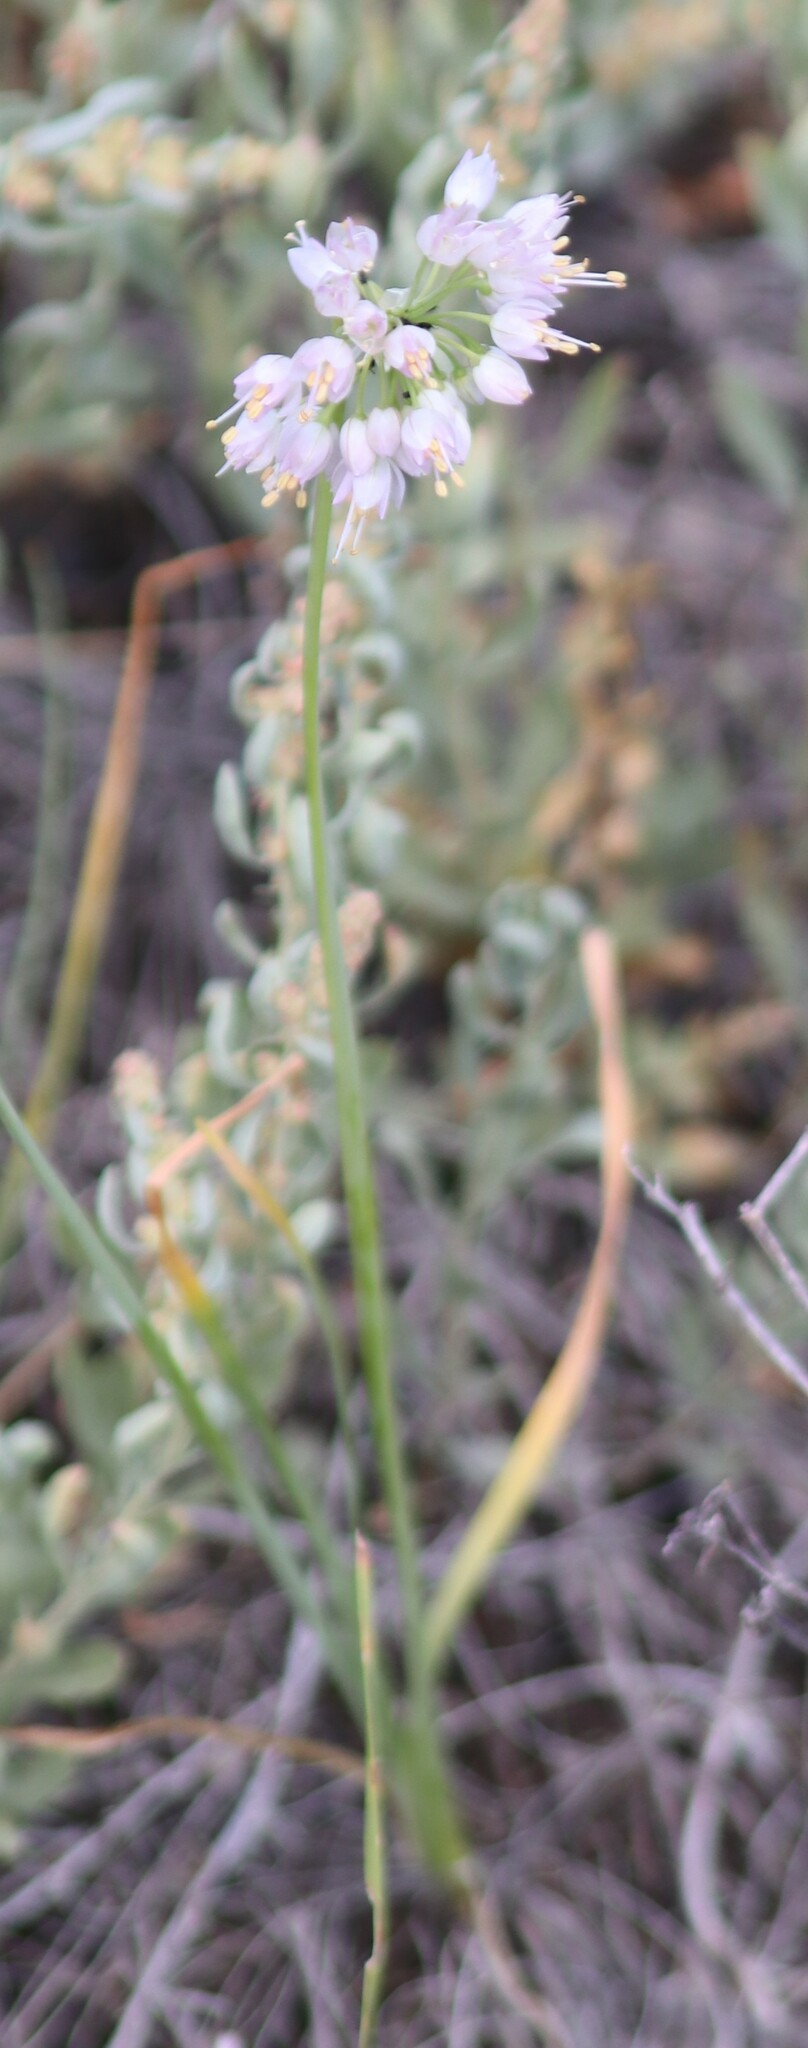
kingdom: Plantae
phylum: Tracheophyta
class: Liliopsida
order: Asparagales
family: Amaryllidaceae
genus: Allium
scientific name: Allium cernuum
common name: Nodding onion
